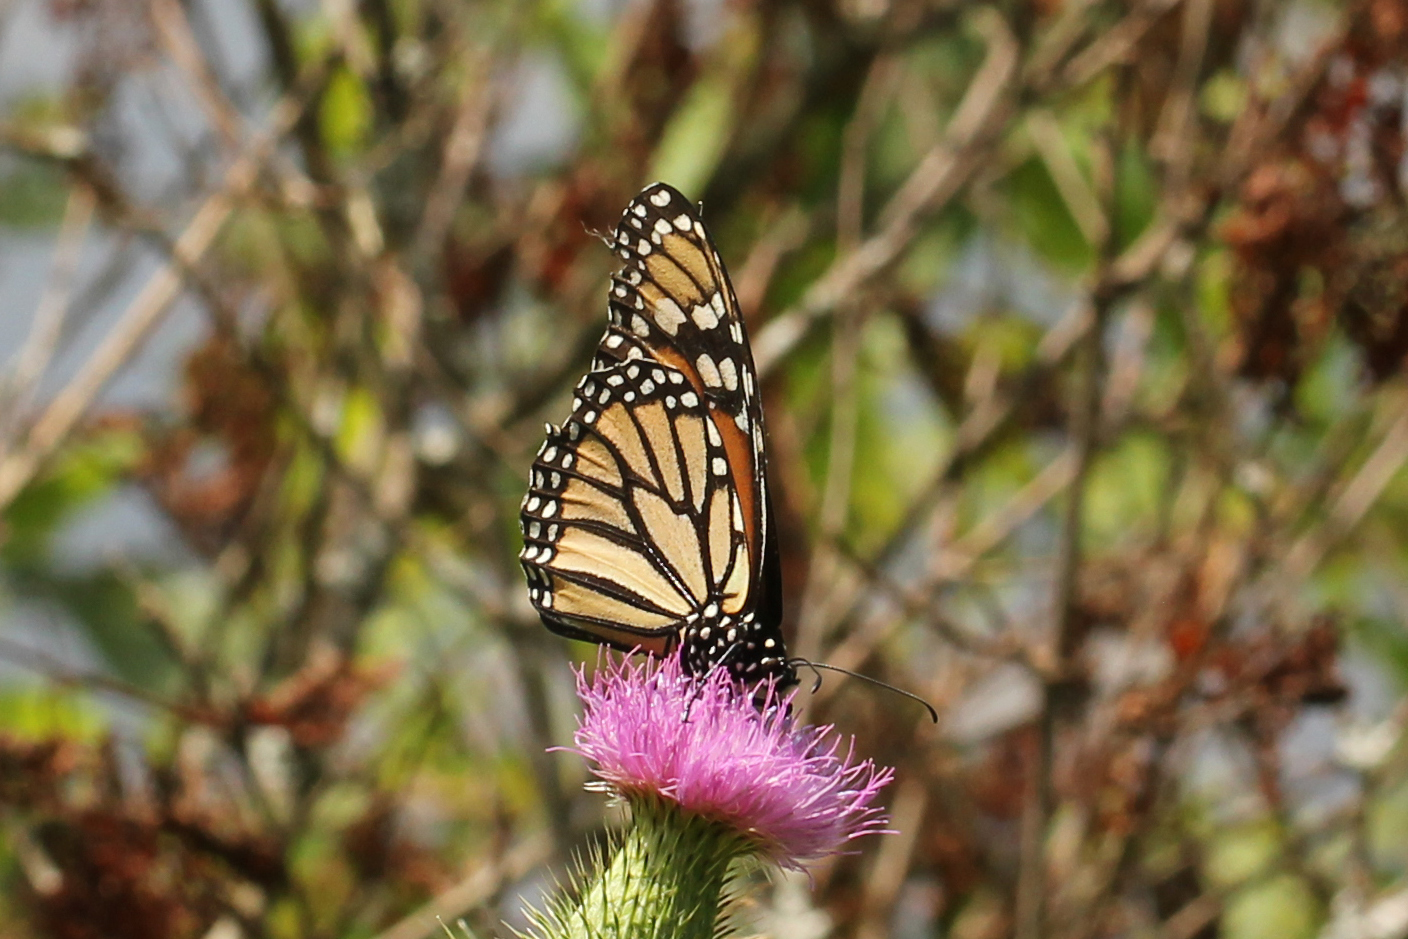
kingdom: Animalia
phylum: Arthropoda
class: Insecta
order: Lepidoptera
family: Nymphalidae
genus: Danaus
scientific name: Danaus plexippus
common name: Monarch
